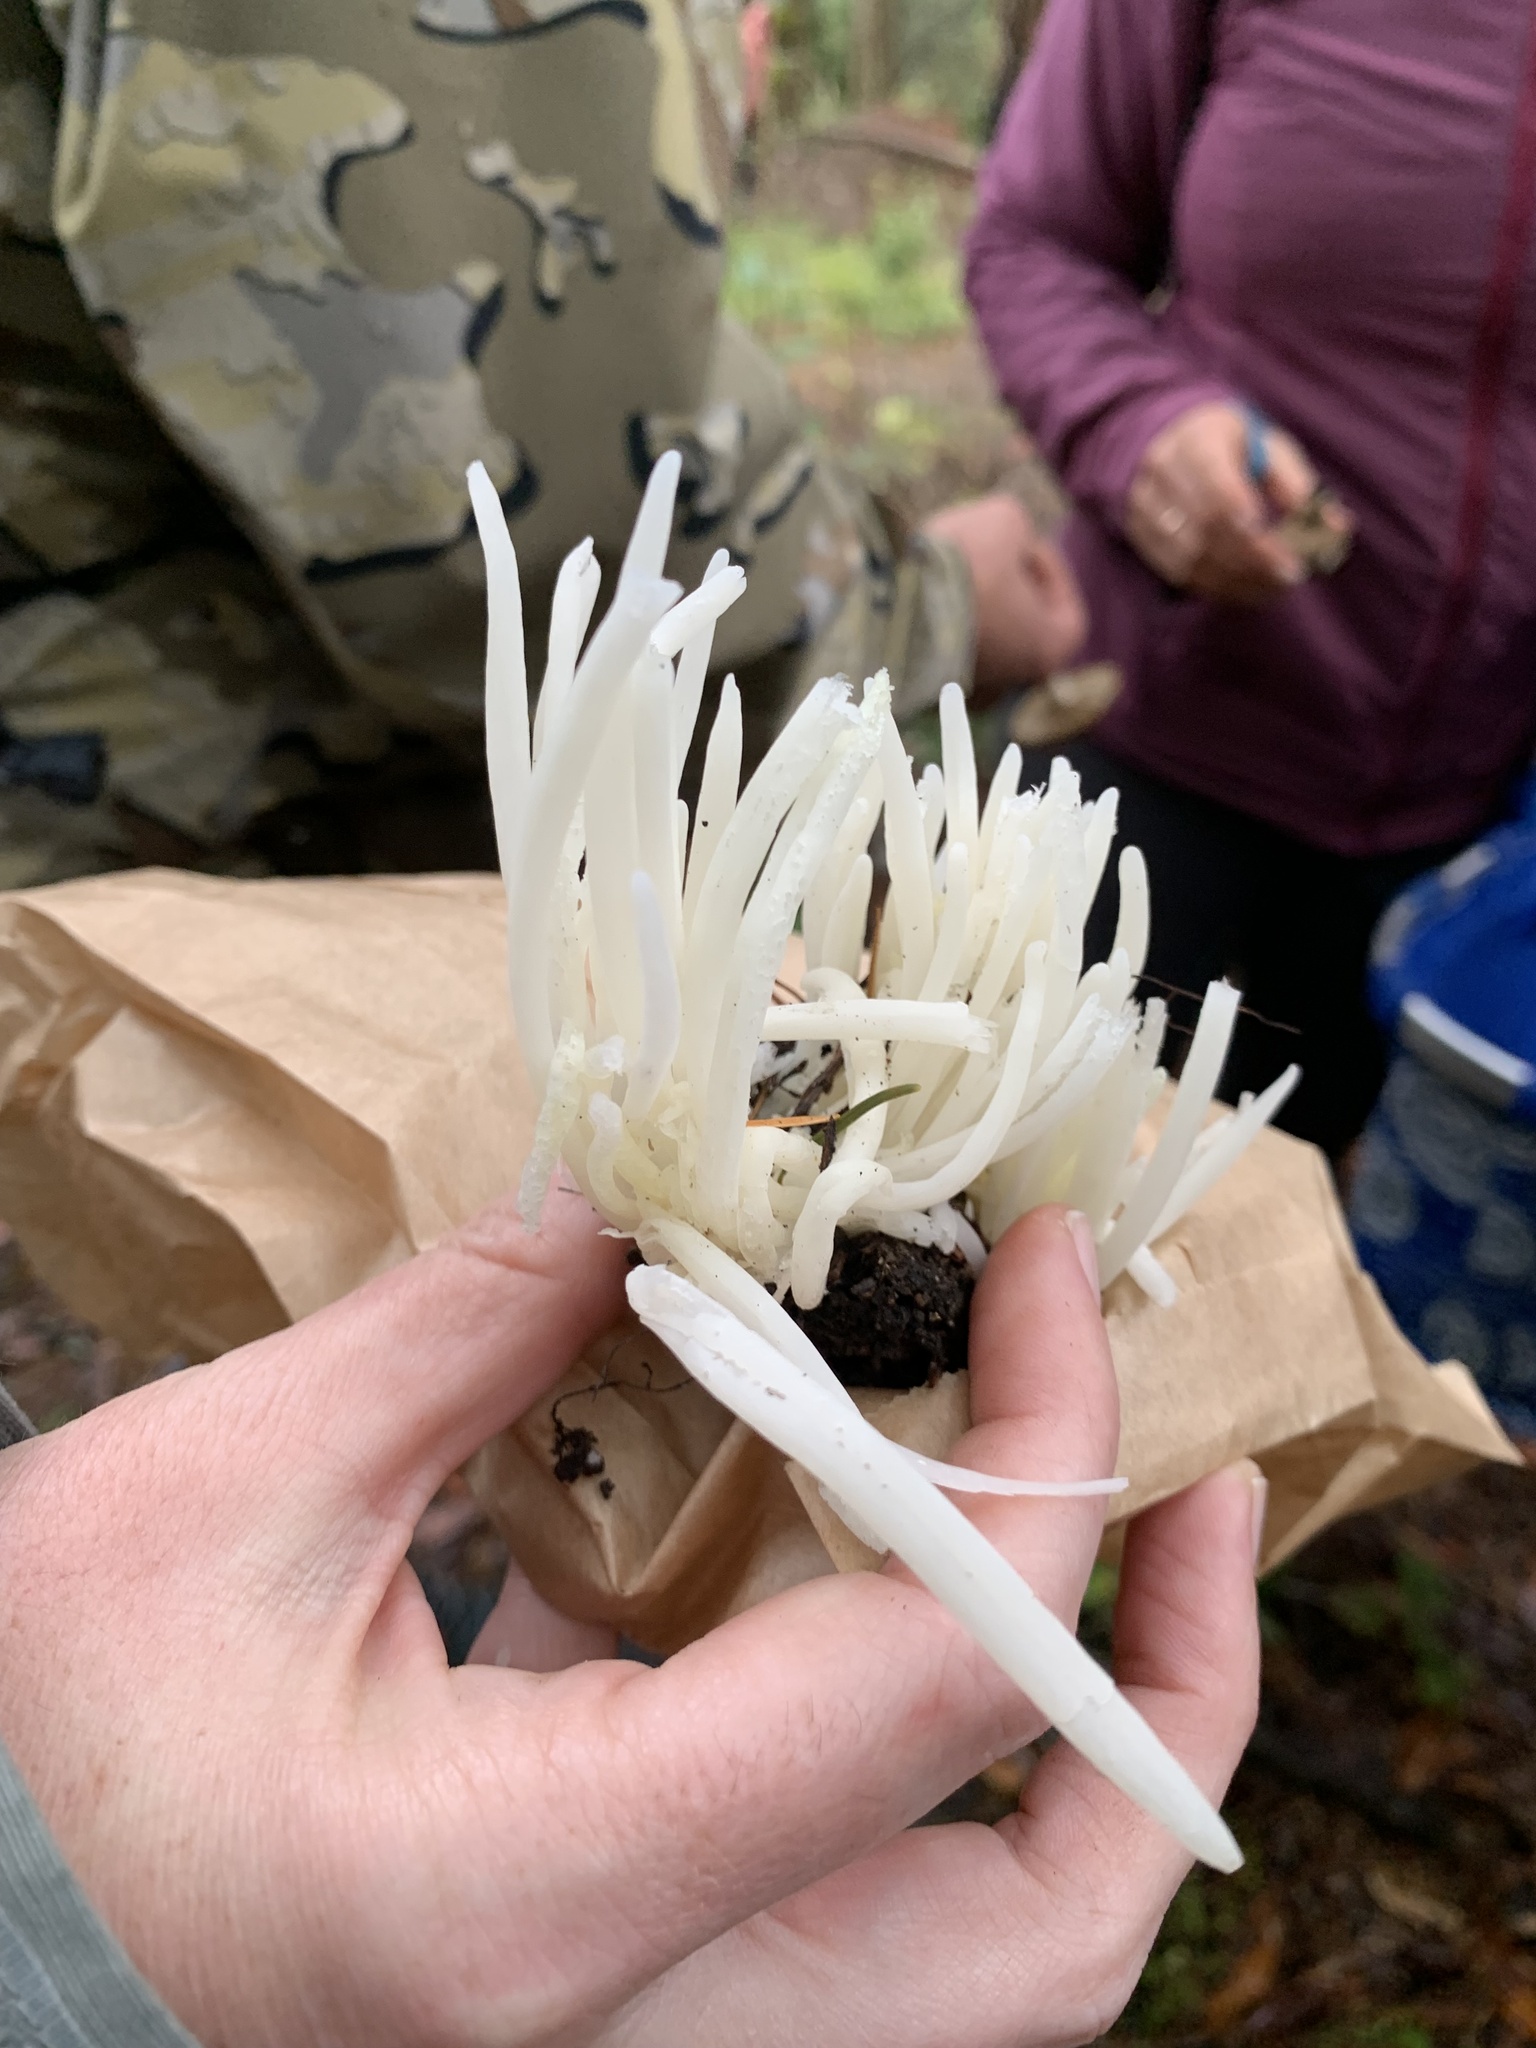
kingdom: Fungi
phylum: Basidiomycota
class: Agaricomycetes
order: Agaricales
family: Clavariaceae
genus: Clavaria
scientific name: Clavaria fragilis
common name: White spindles
